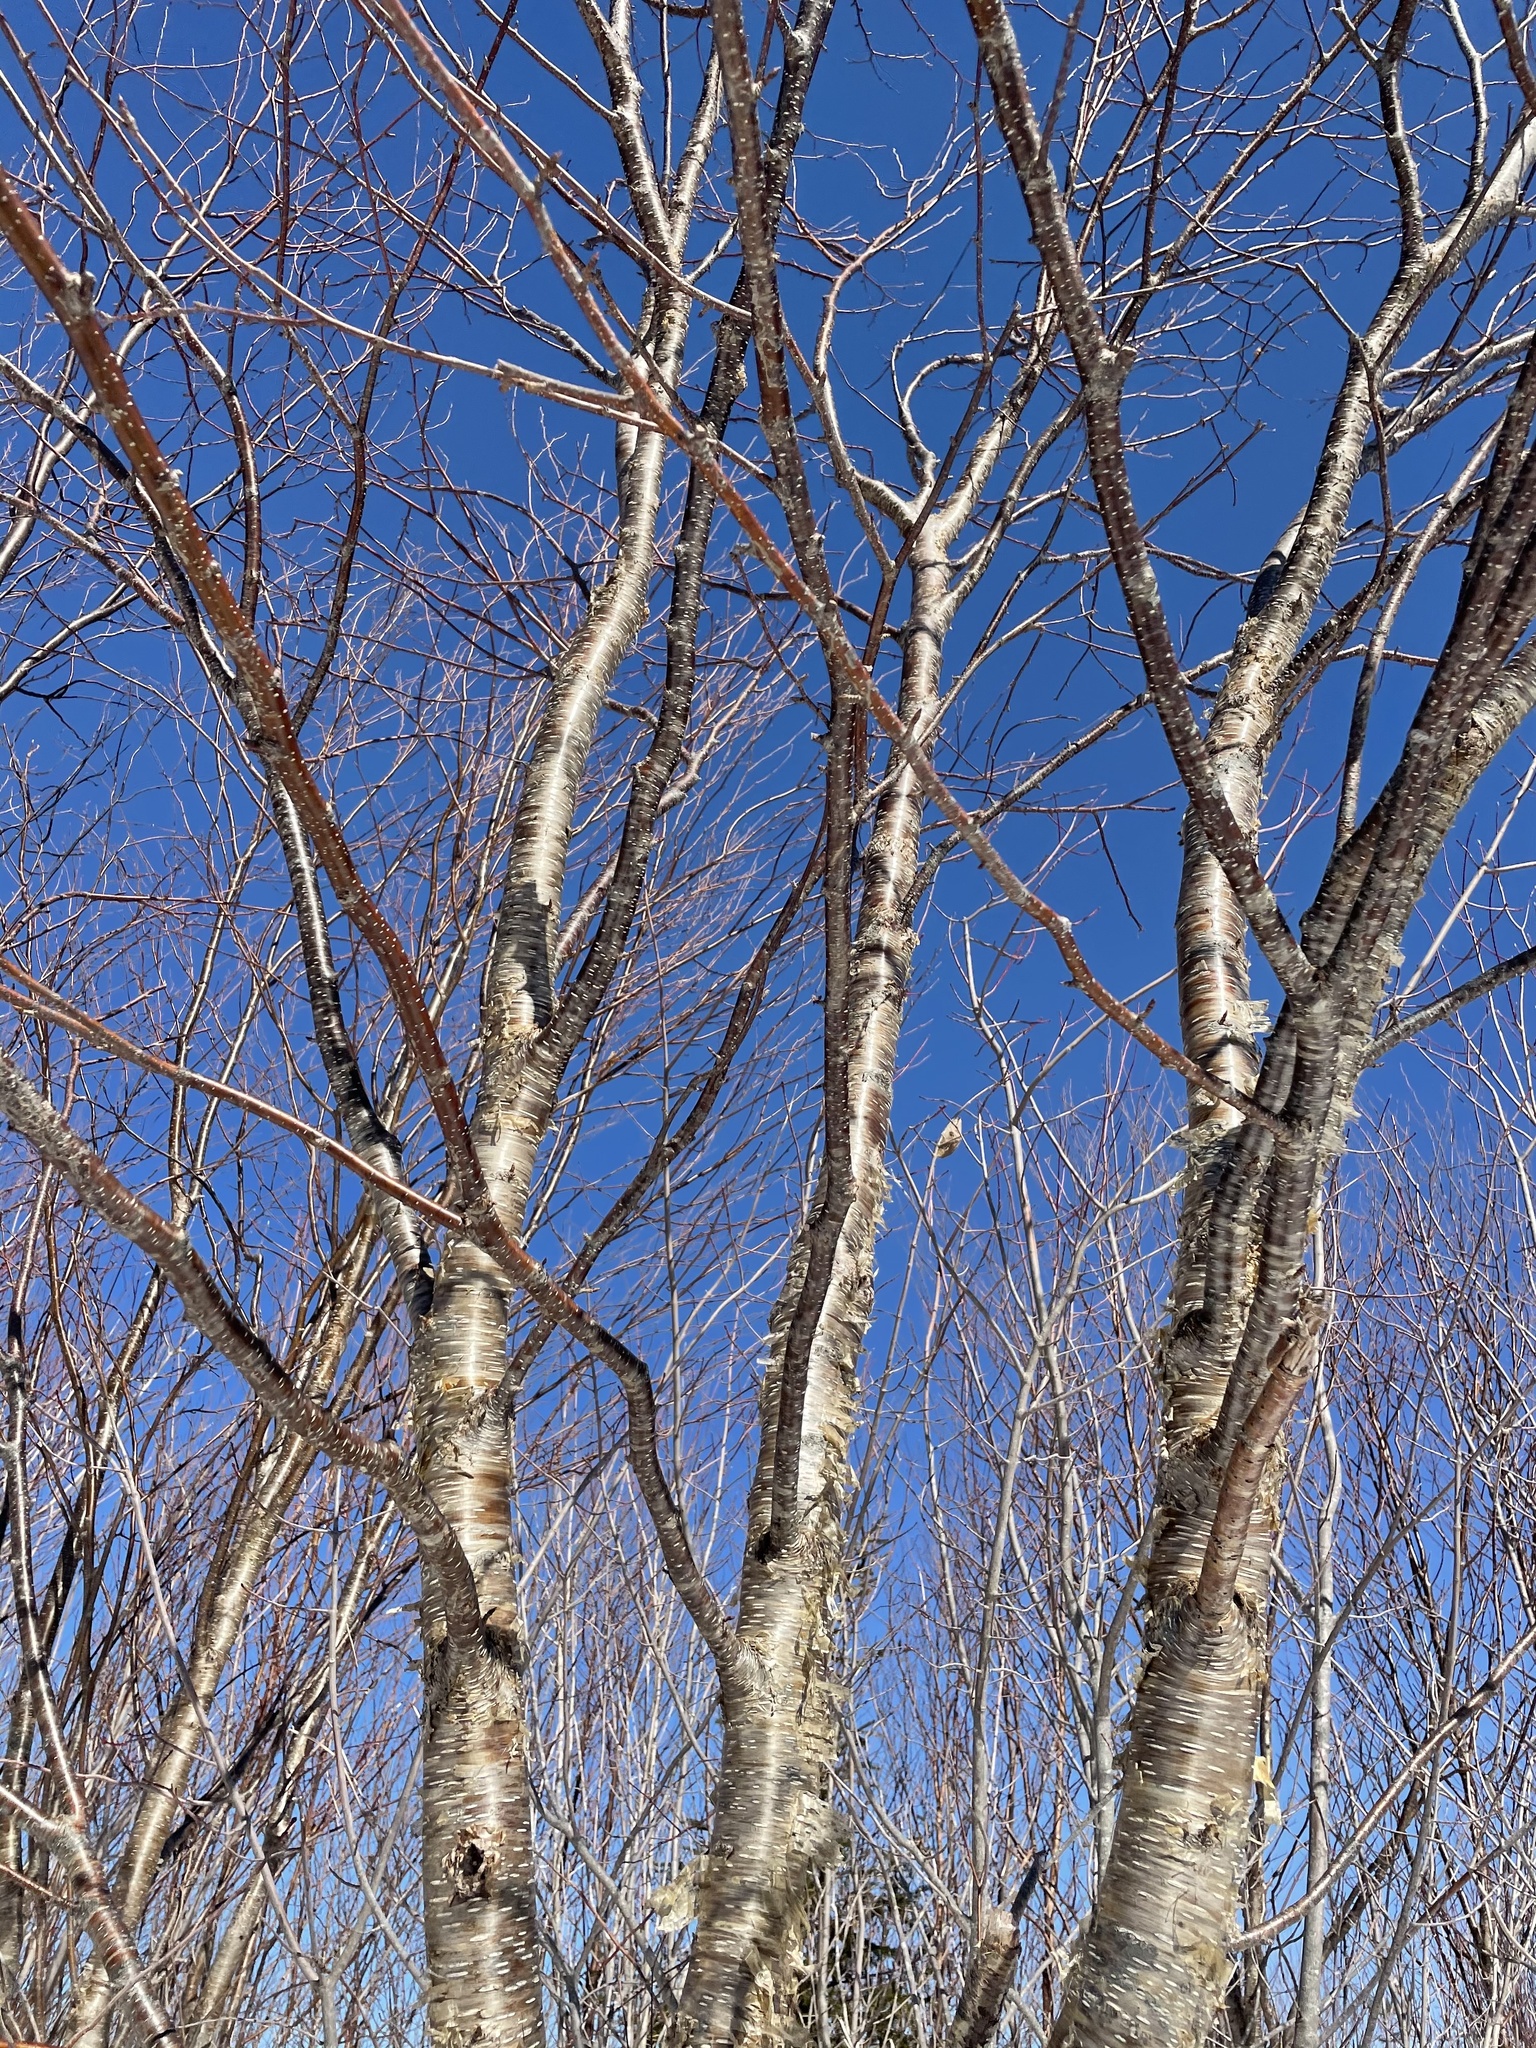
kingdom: Plantae
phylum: Tracheophyta
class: Magnoliopsida
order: Fagales
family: Betulaceae
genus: Betula
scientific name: Betula alleghaniensis
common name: Yellow birch
